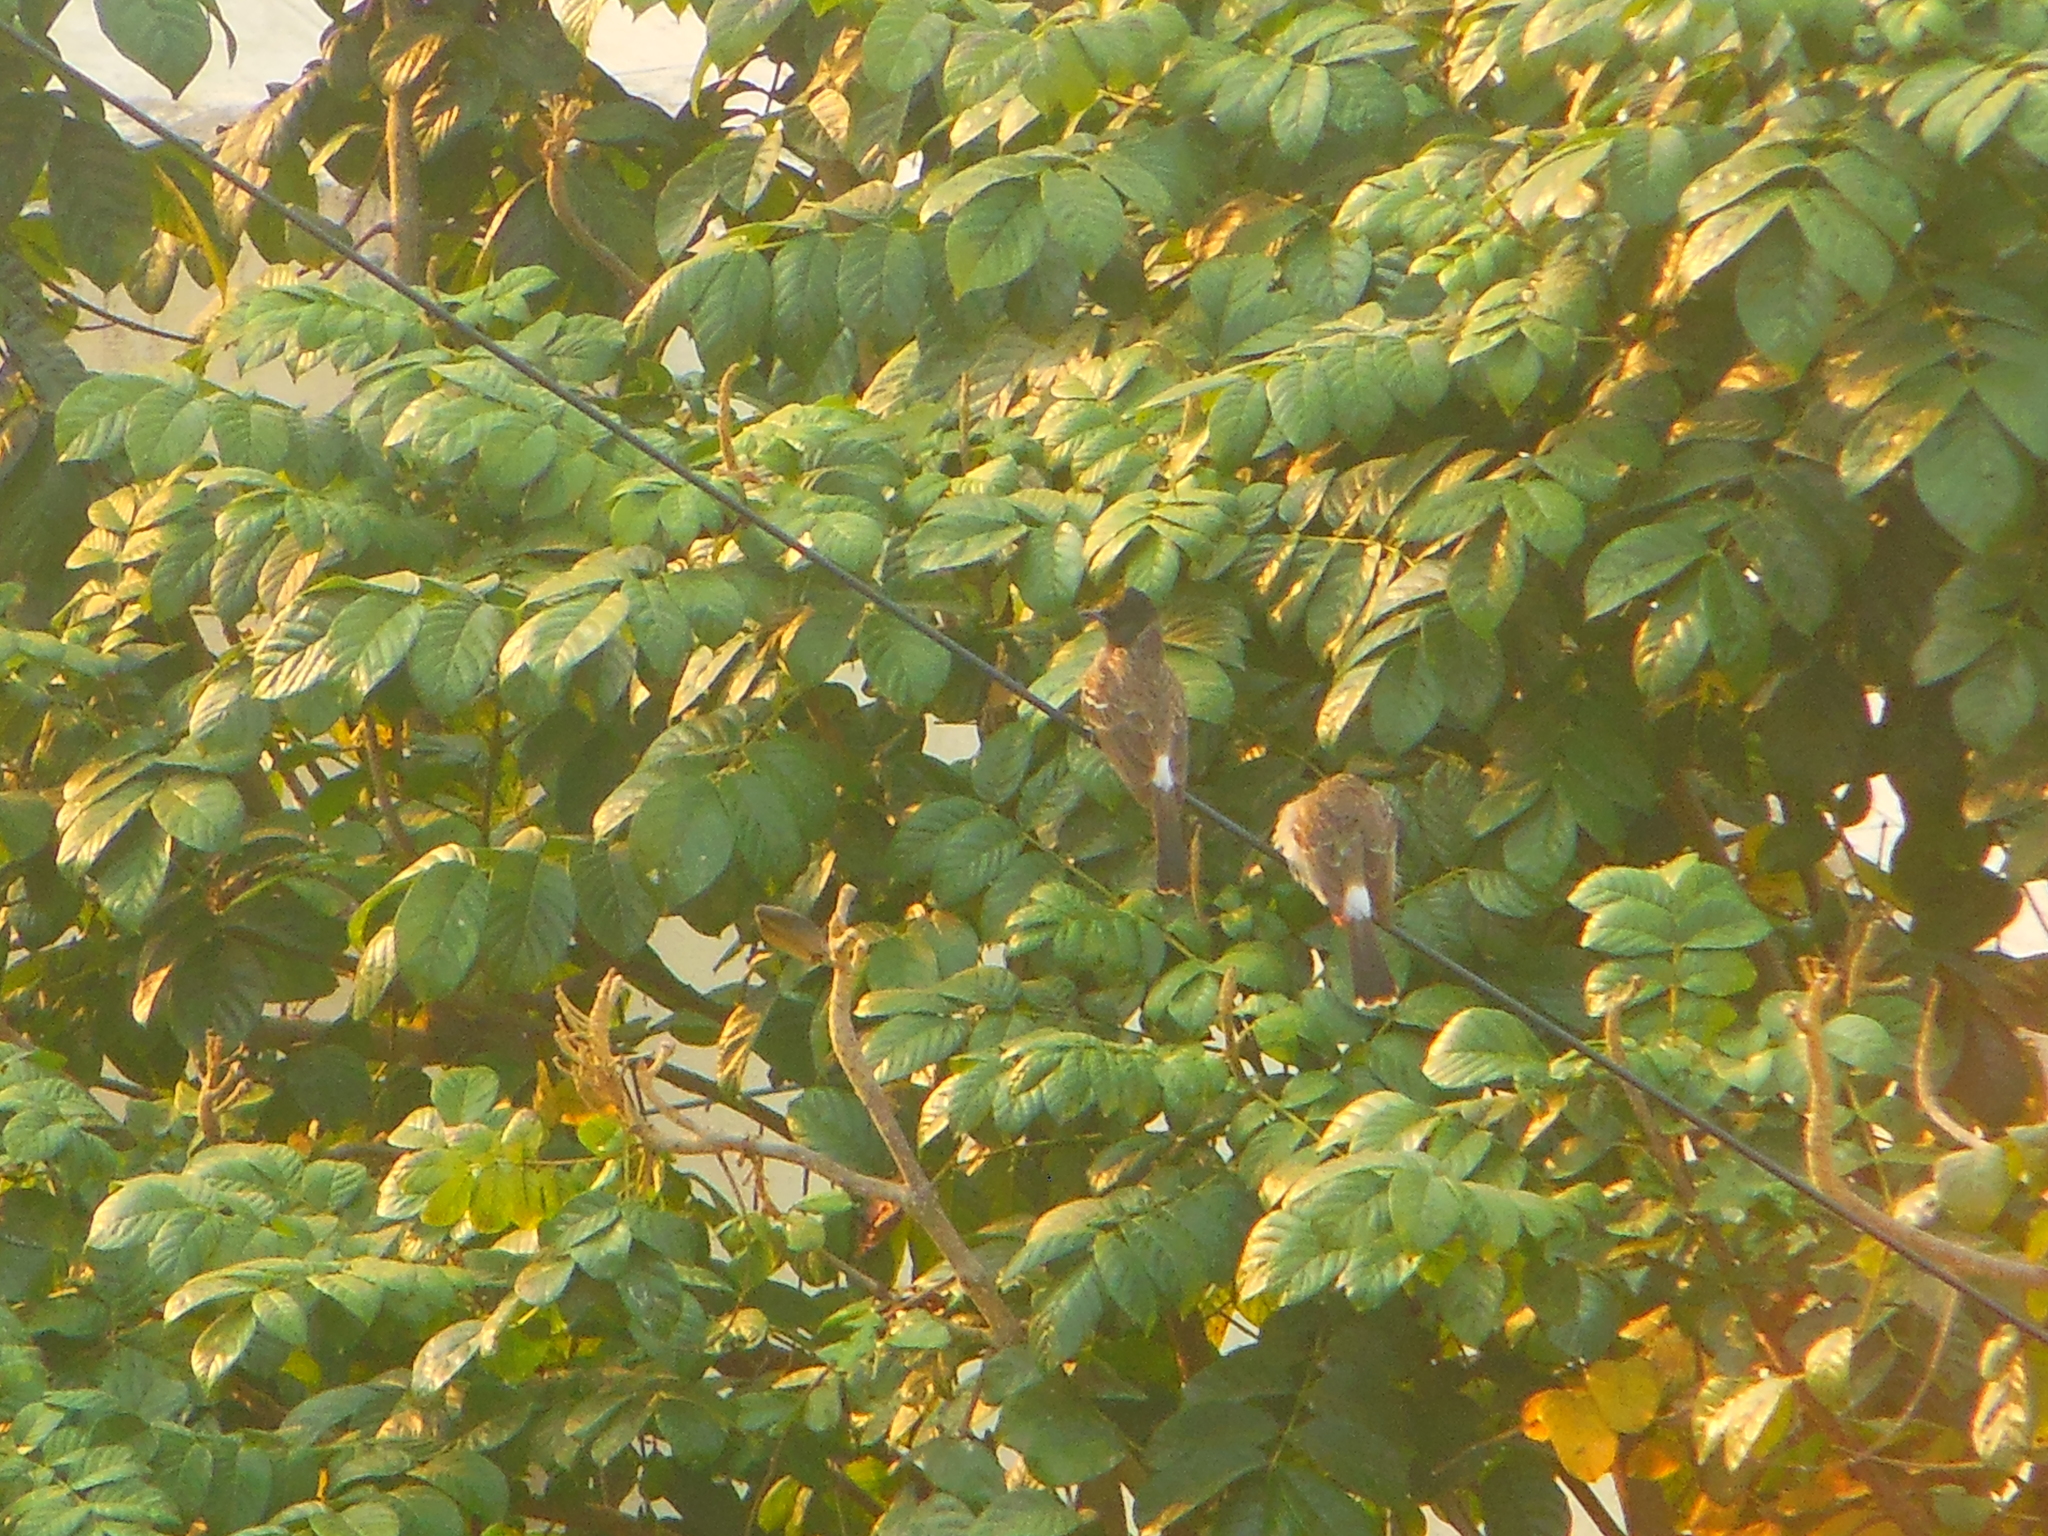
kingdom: Animalia
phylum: Chordata
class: Aves
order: Passeriformes
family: Pycnonotidae
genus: Pycnonotus
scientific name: Pycnonotus cafer
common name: Red-vented bulbul
